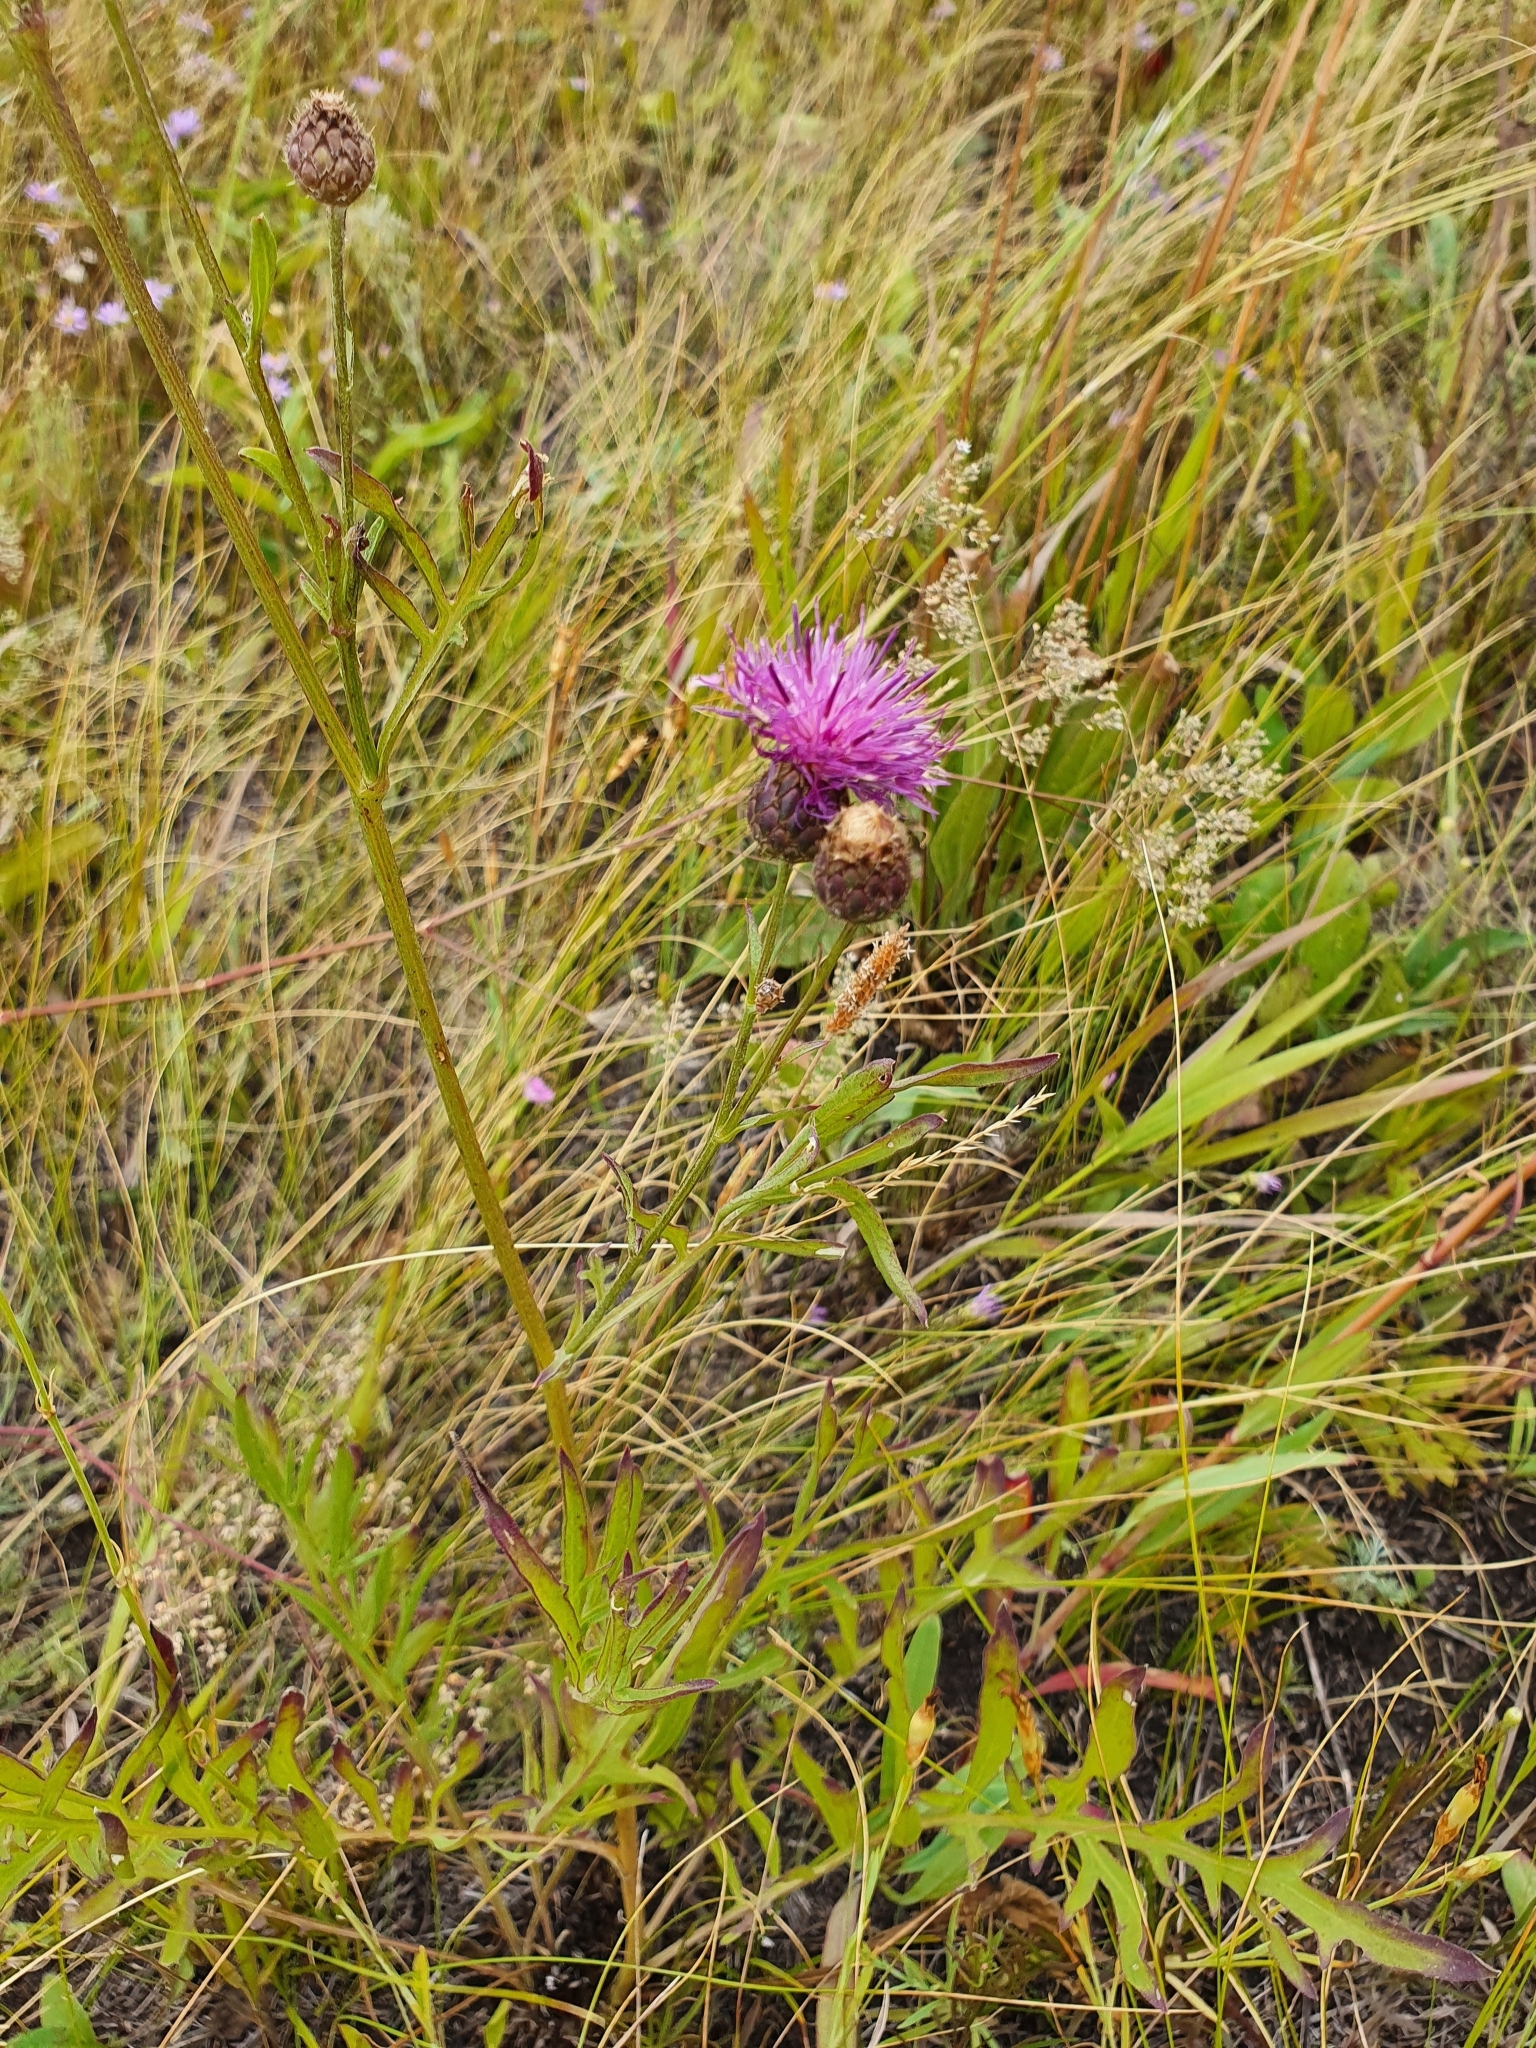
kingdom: Plantae
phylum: Tracheophyta
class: Magnoliopsida
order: Asterales
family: Asteraceae
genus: Centaurea
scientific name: Centaurea scabiosa
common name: Greater knapweed
